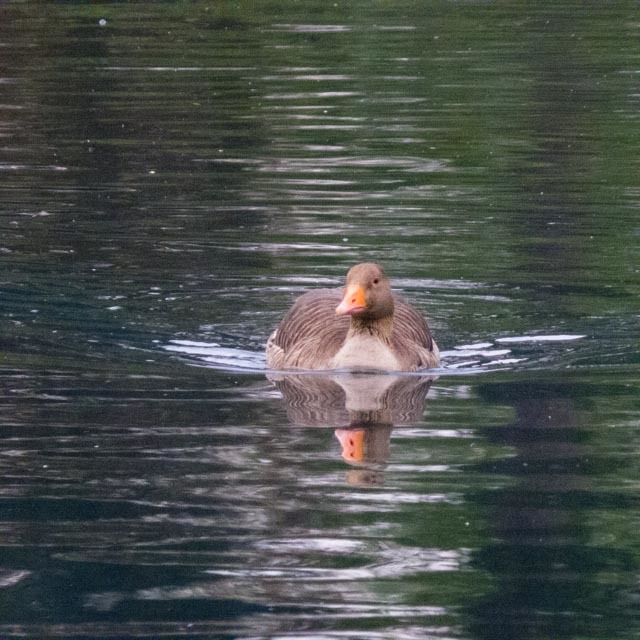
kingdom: Animalia
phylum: Chordata
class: Aves
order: Anseriformes
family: Anatidae
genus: Anser
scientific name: Anser anser
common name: Greylag goose
